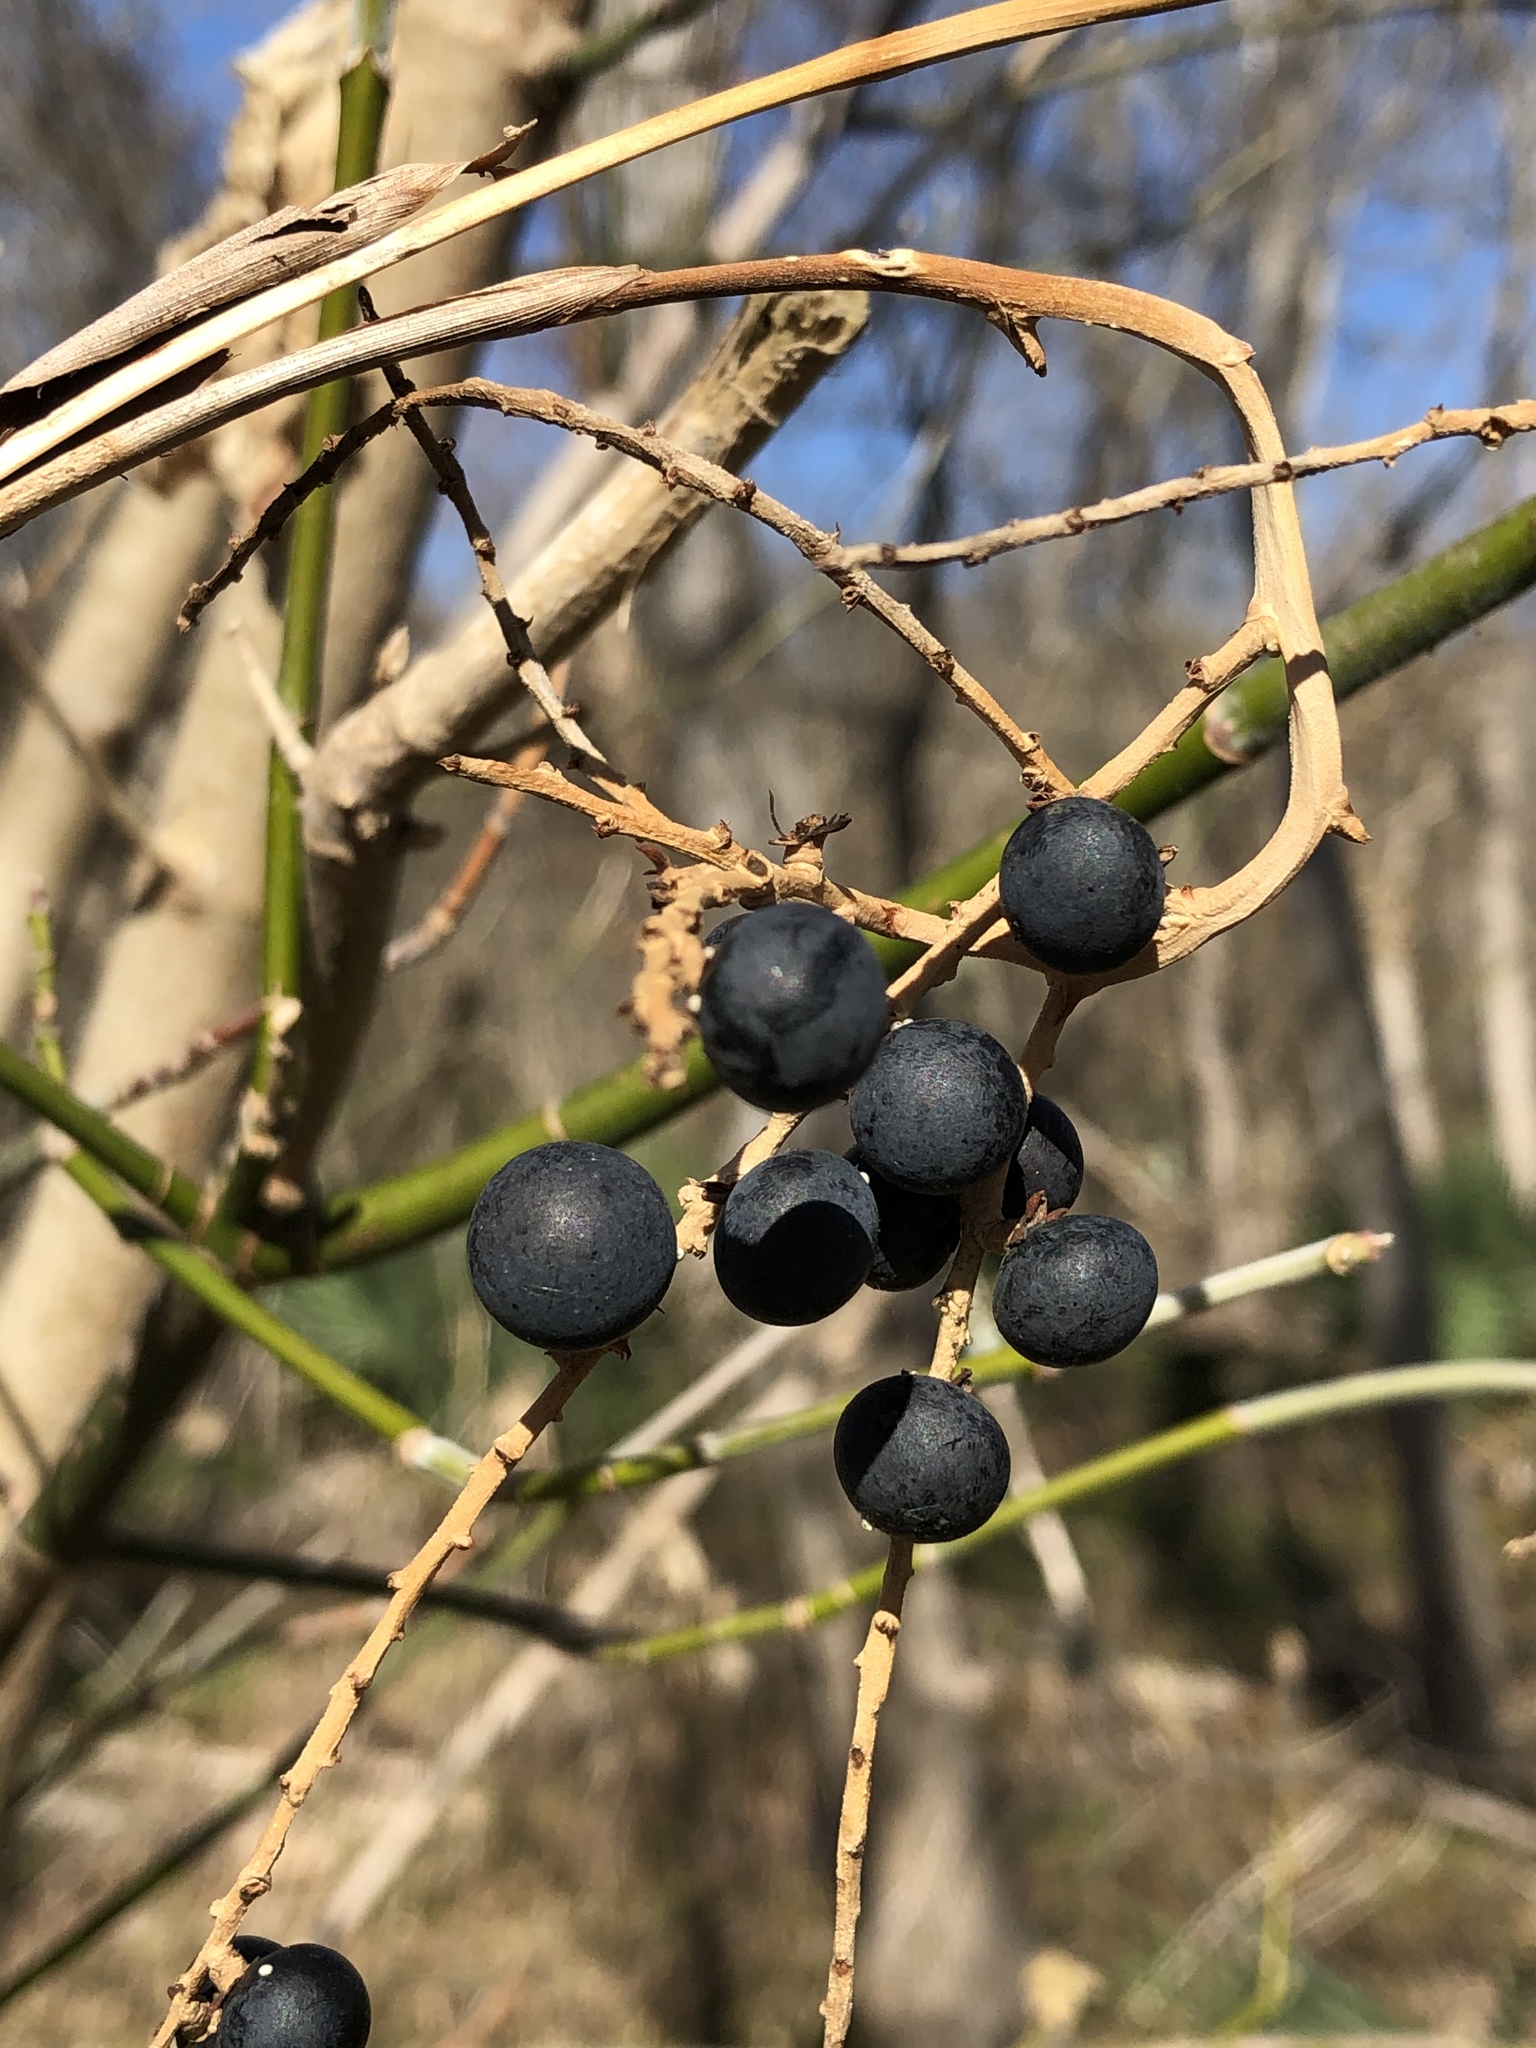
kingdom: Plantae
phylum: Tracheophyta
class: Liliopsida
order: Arecales
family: Arecaceae
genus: Sabal
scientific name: Sabal minor
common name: Dwarf palmetto
